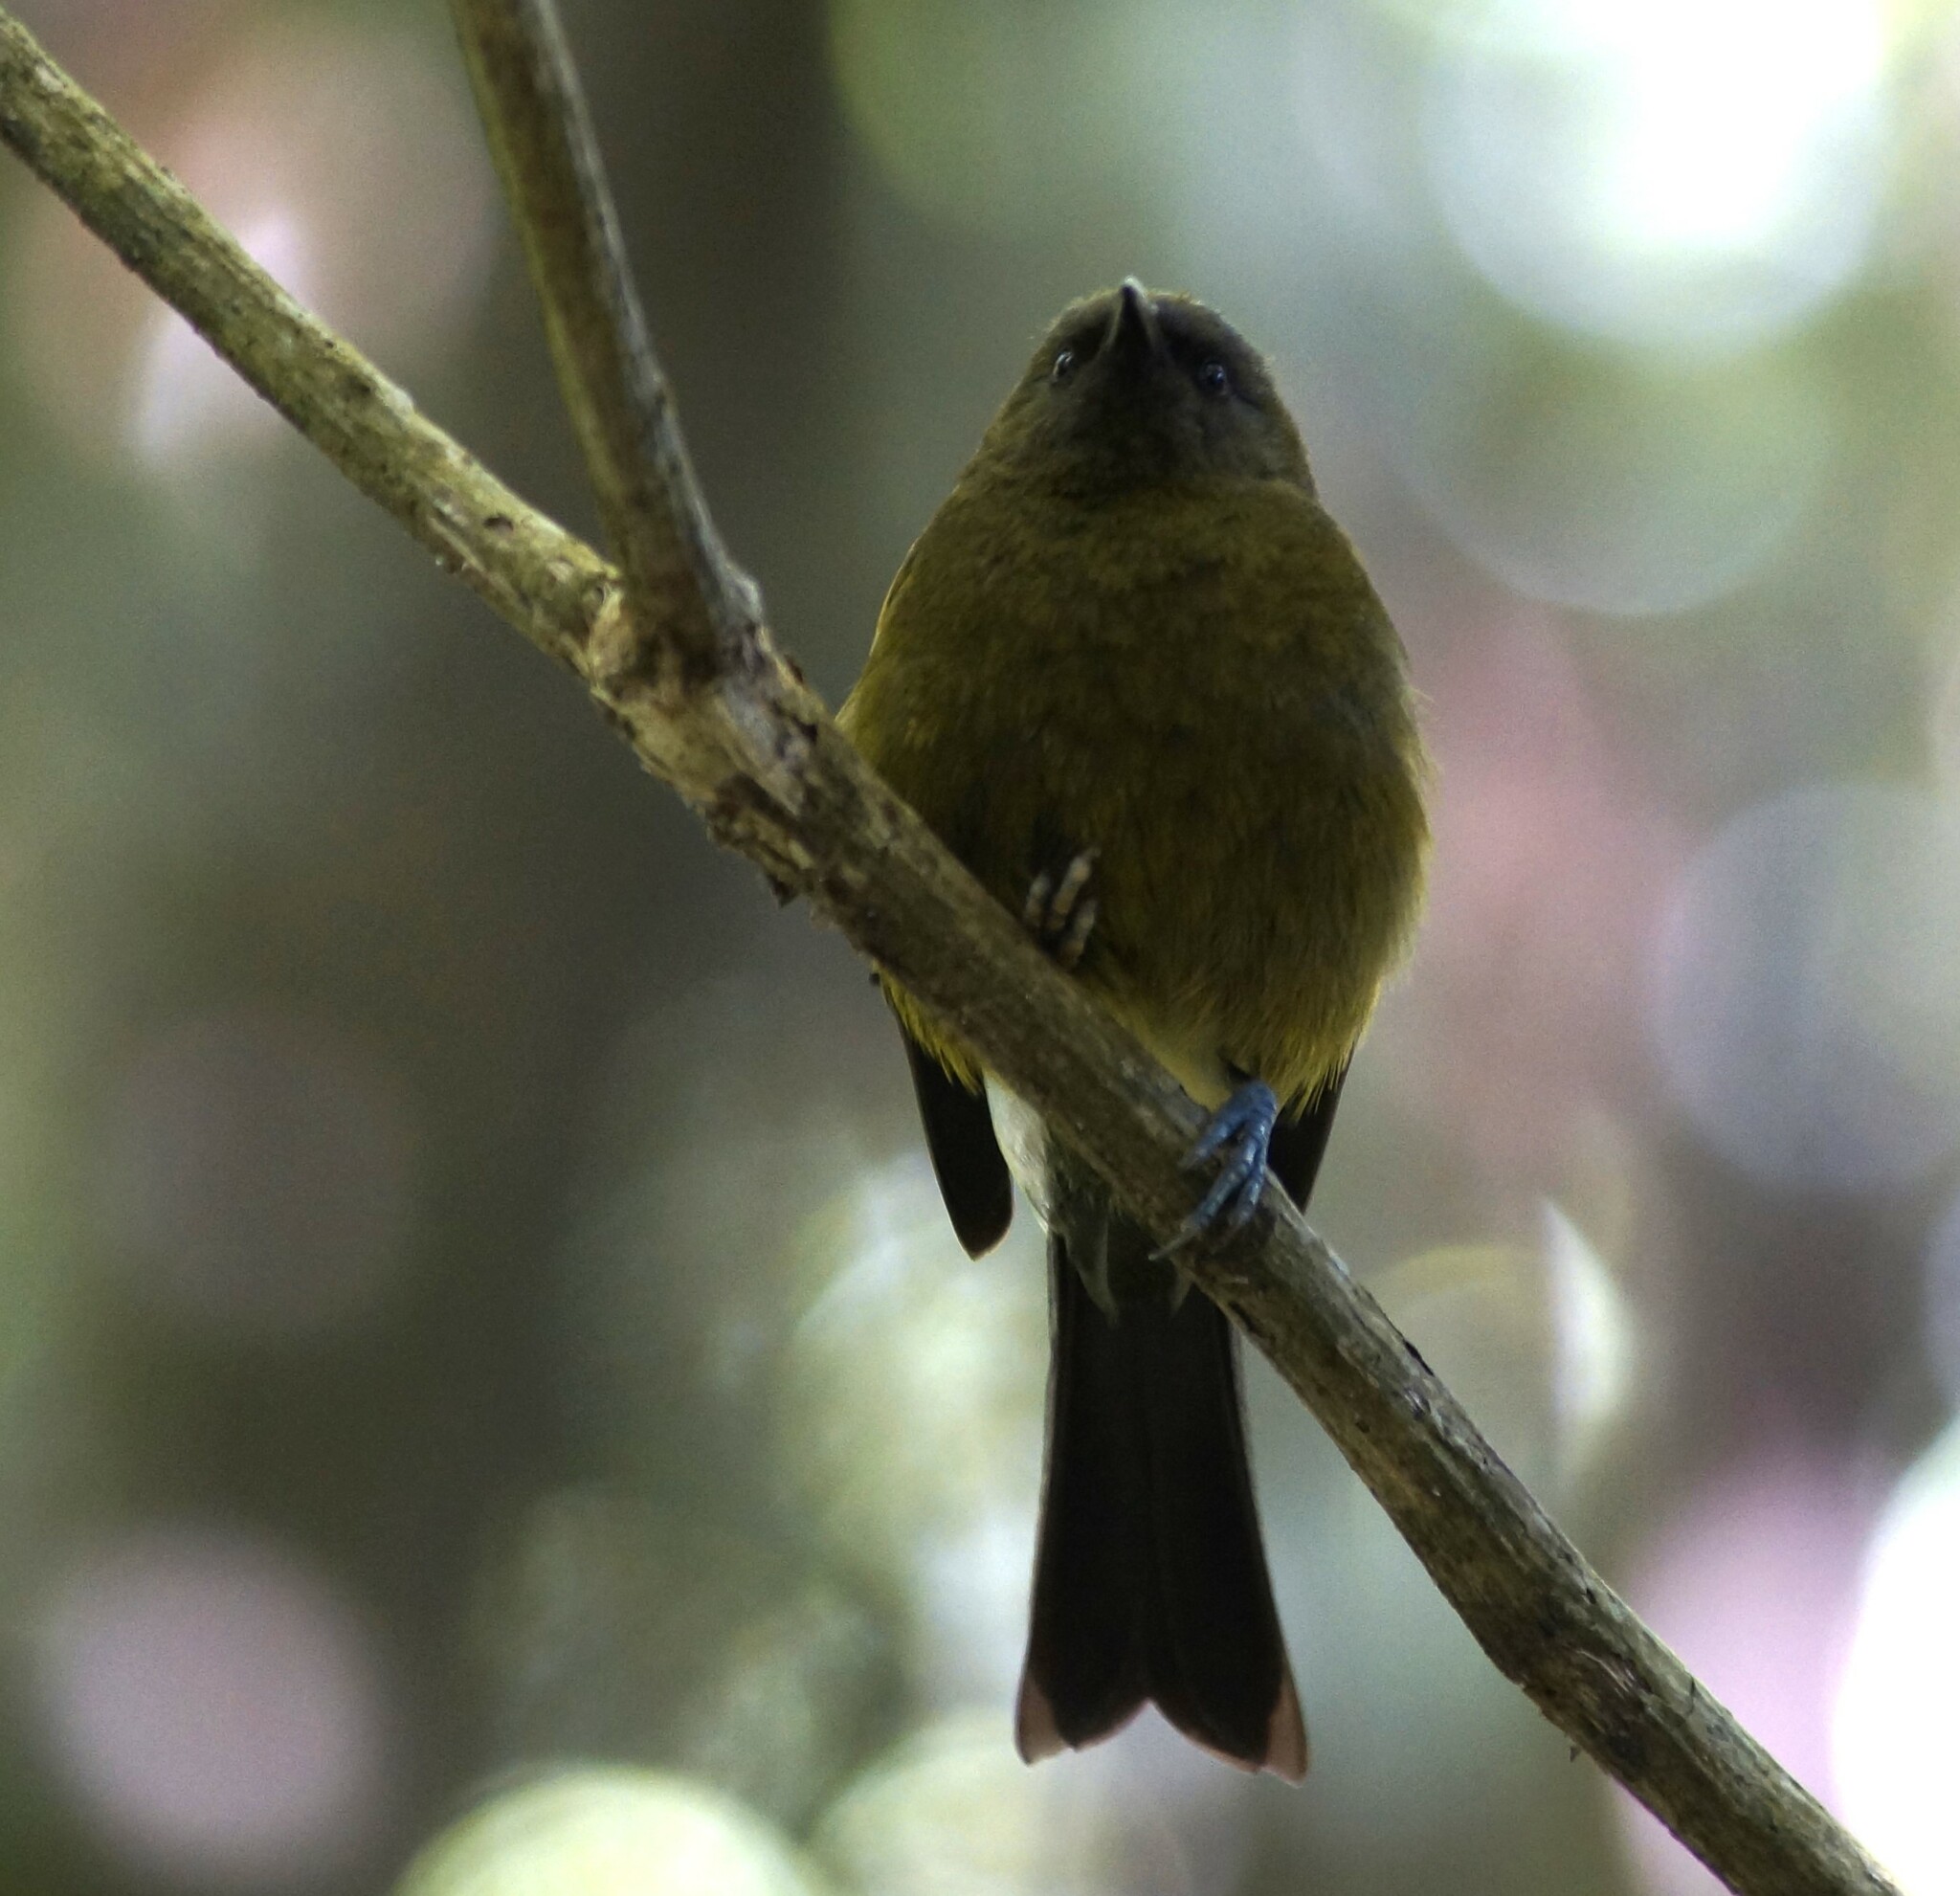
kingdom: Animalia
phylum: Chordata
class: Aves
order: Passeriformes
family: Meliphagidae
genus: Anthornis
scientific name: Anthornis melanura
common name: New zealand bellbird
